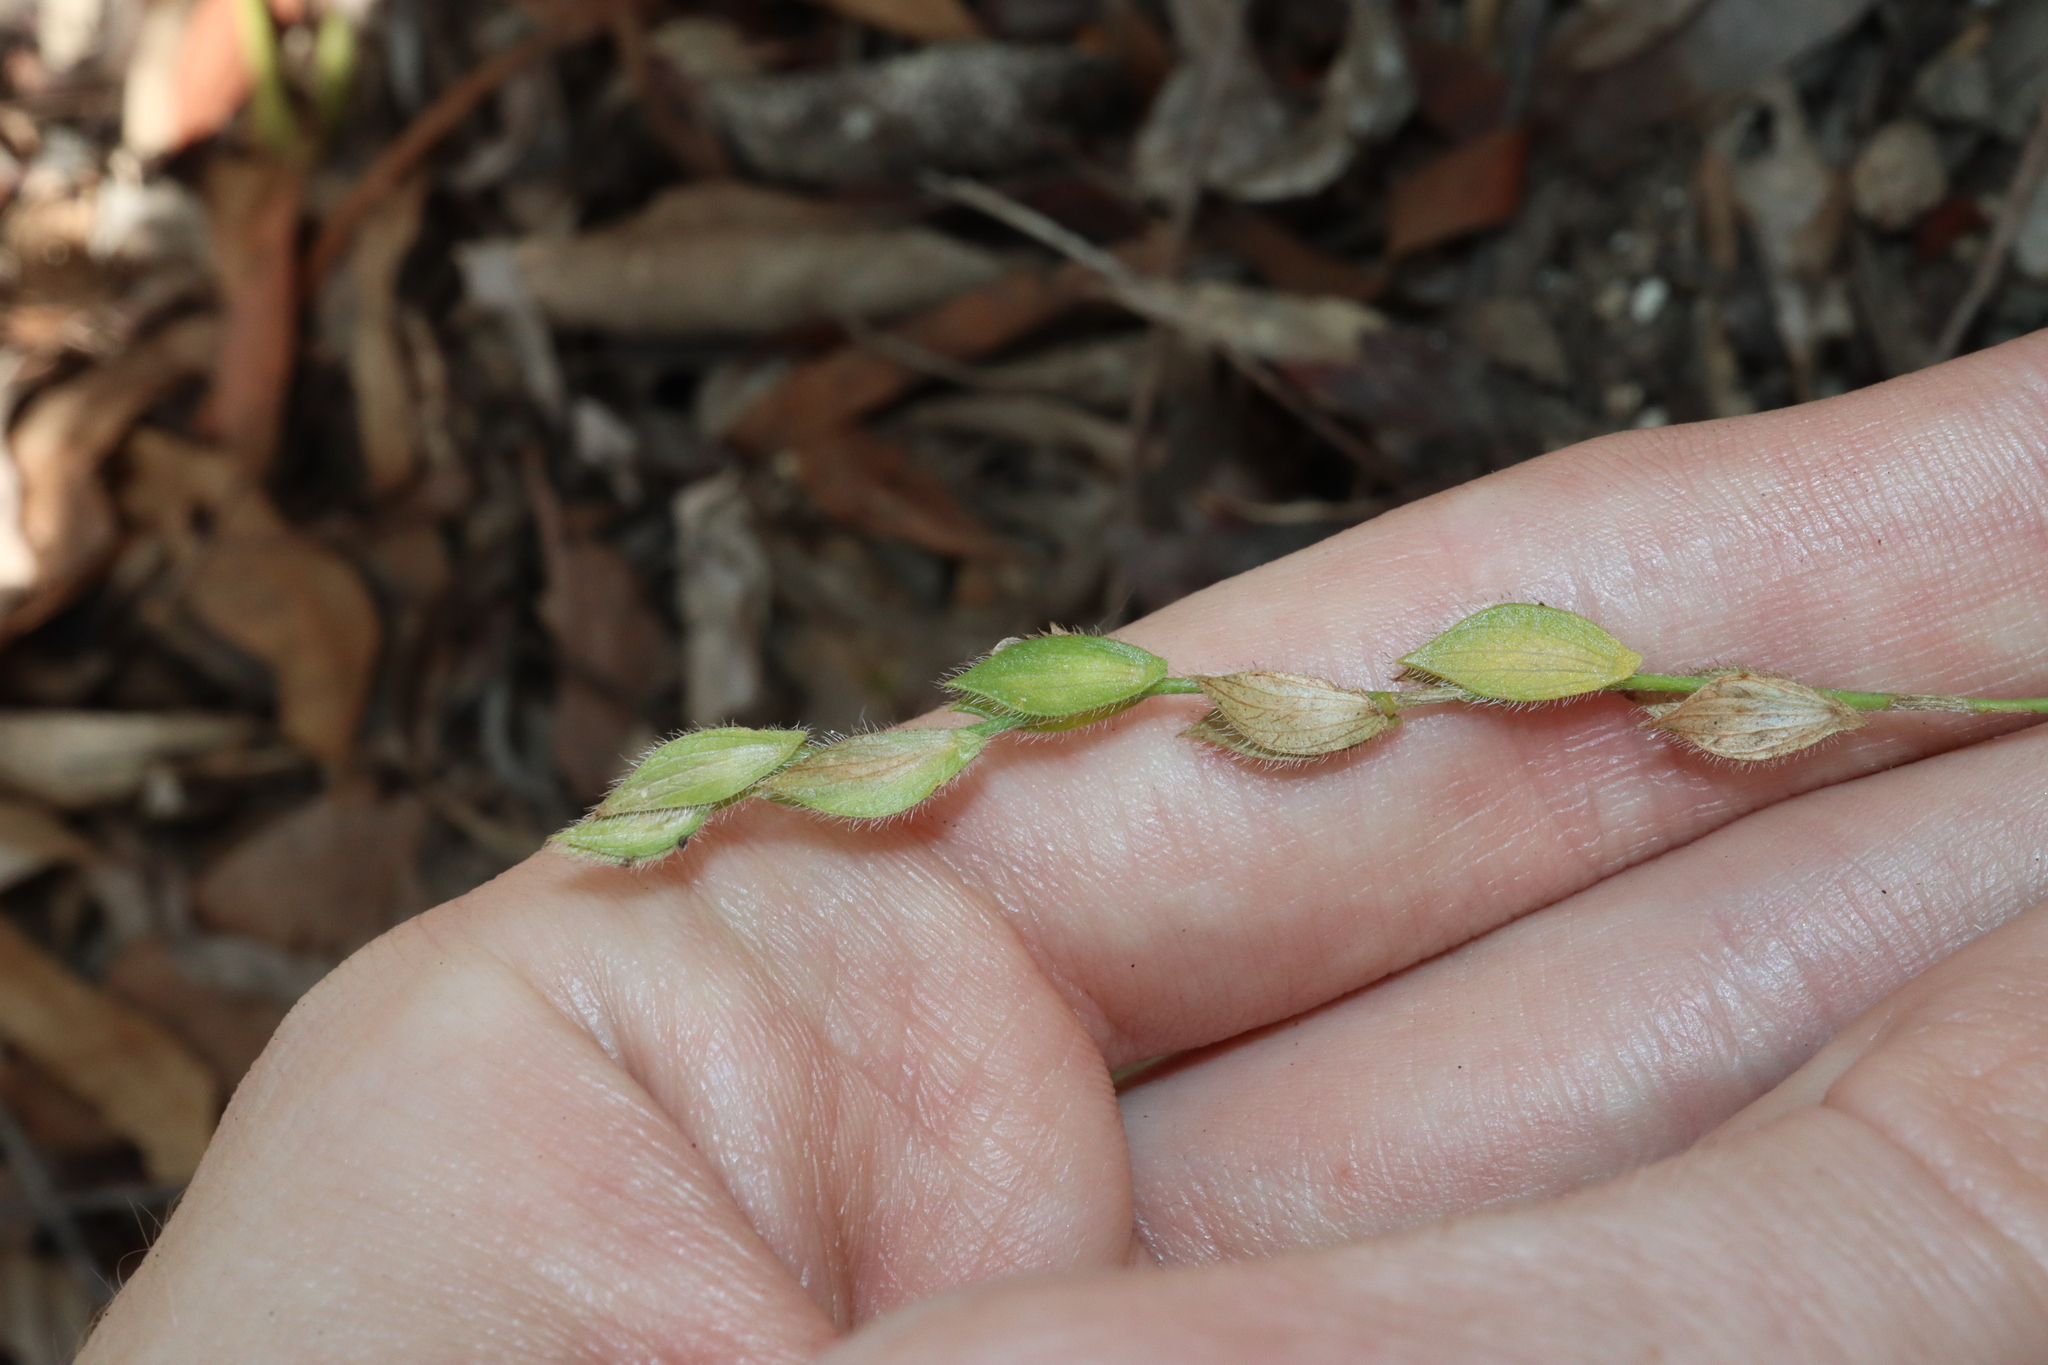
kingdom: Plantae
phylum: Tracheophyta
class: Magnoliopsida
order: Fabales
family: Fabaceae
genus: Zornia
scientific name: Zornia muriculata
